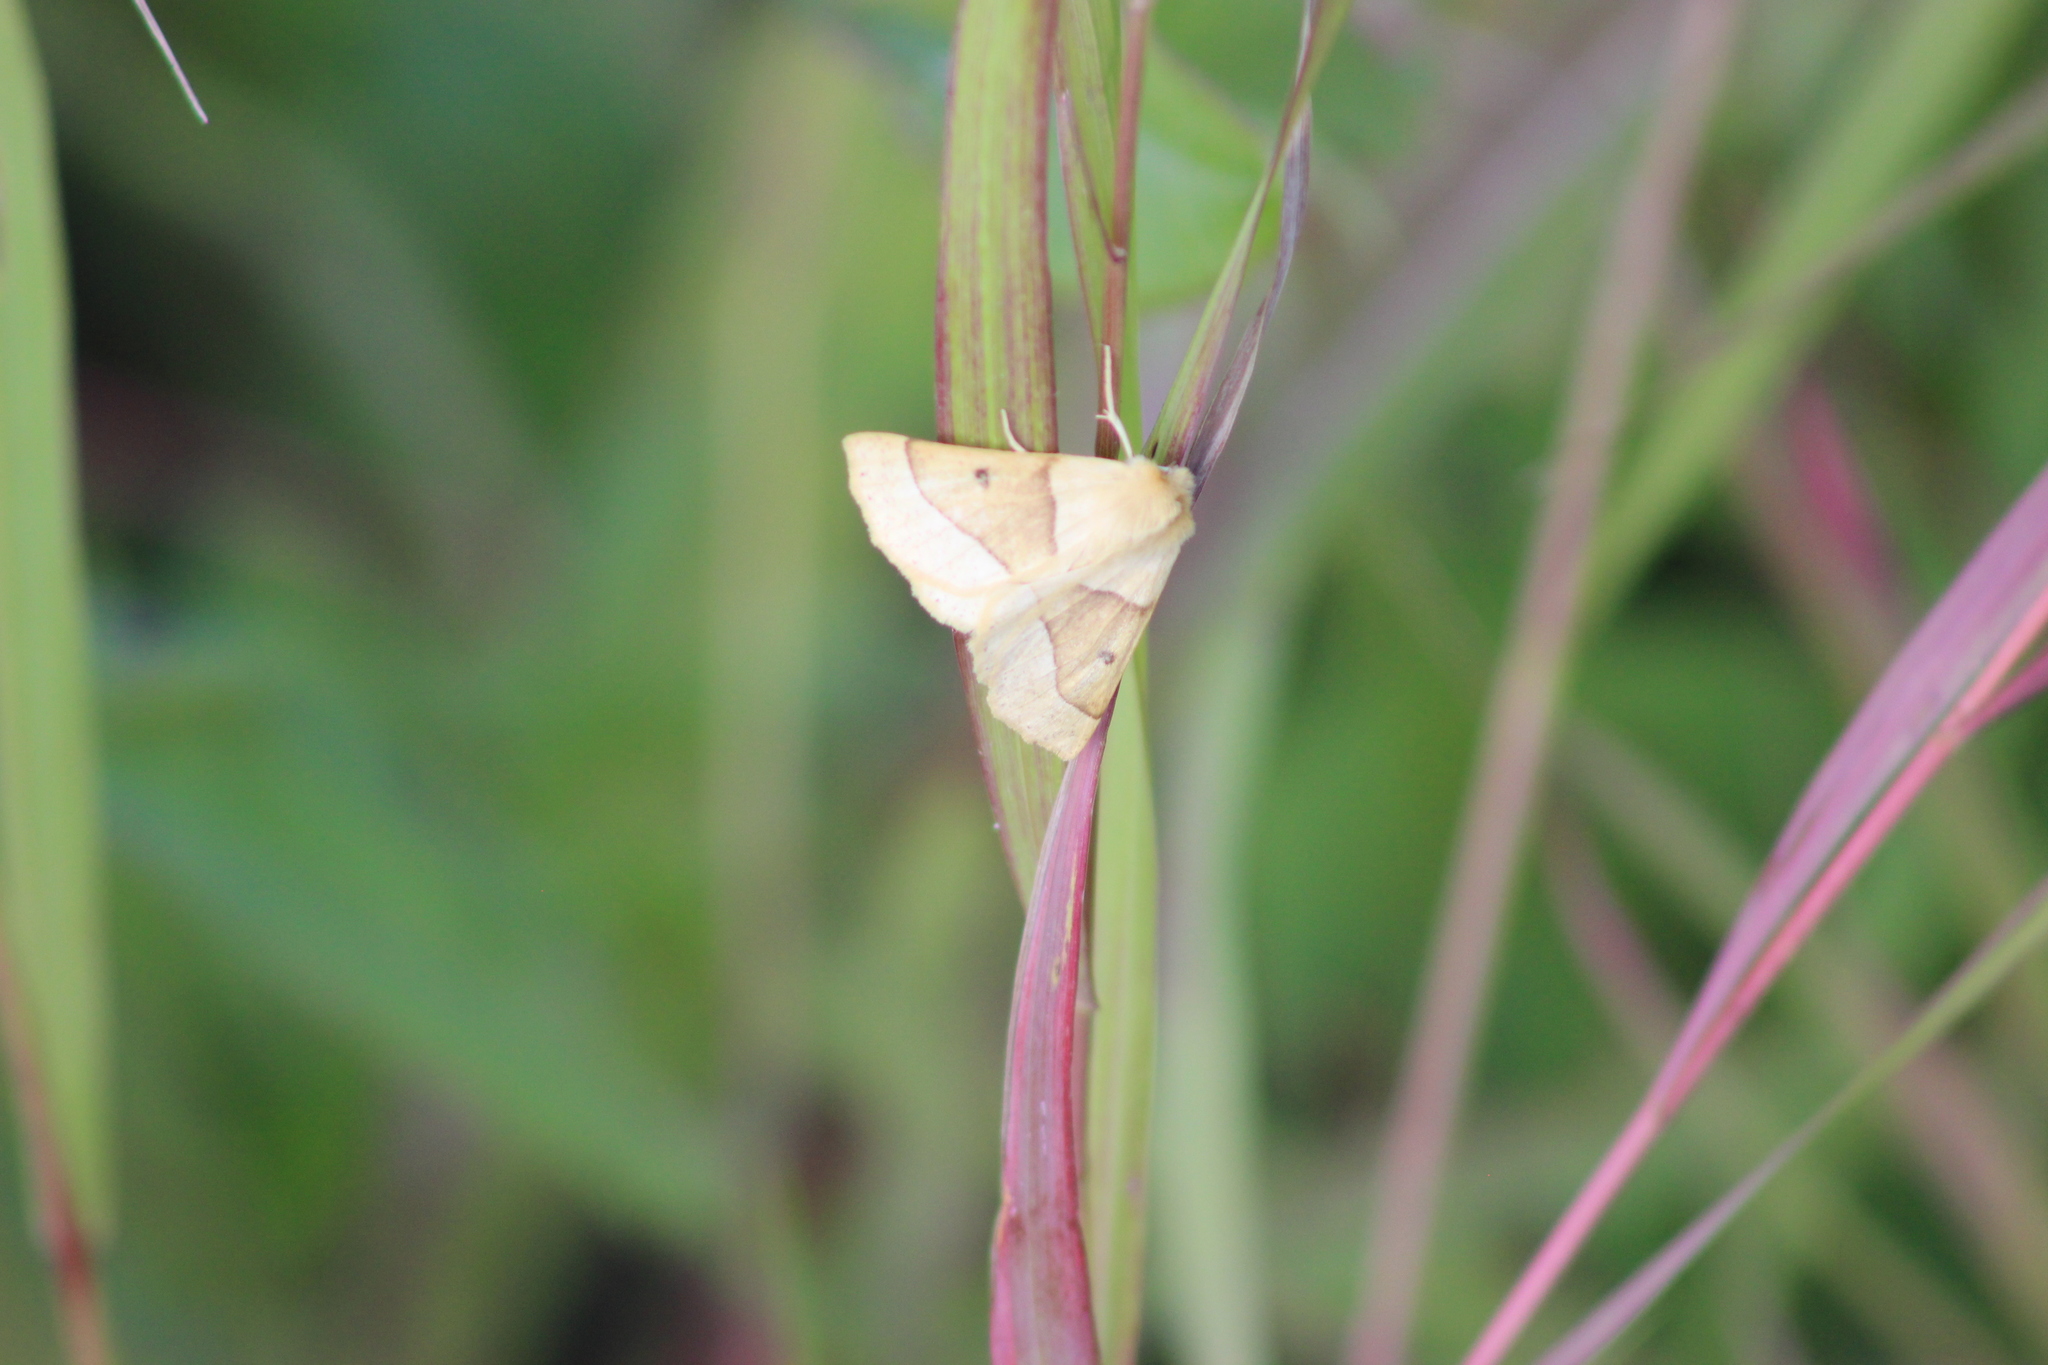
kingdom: Animalia
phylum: Arthropoda
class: Insecta
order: Lepidoptera
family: Geometridae
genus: Crocallis
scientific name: Crocallis elinguaria
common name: Scalloped oak
